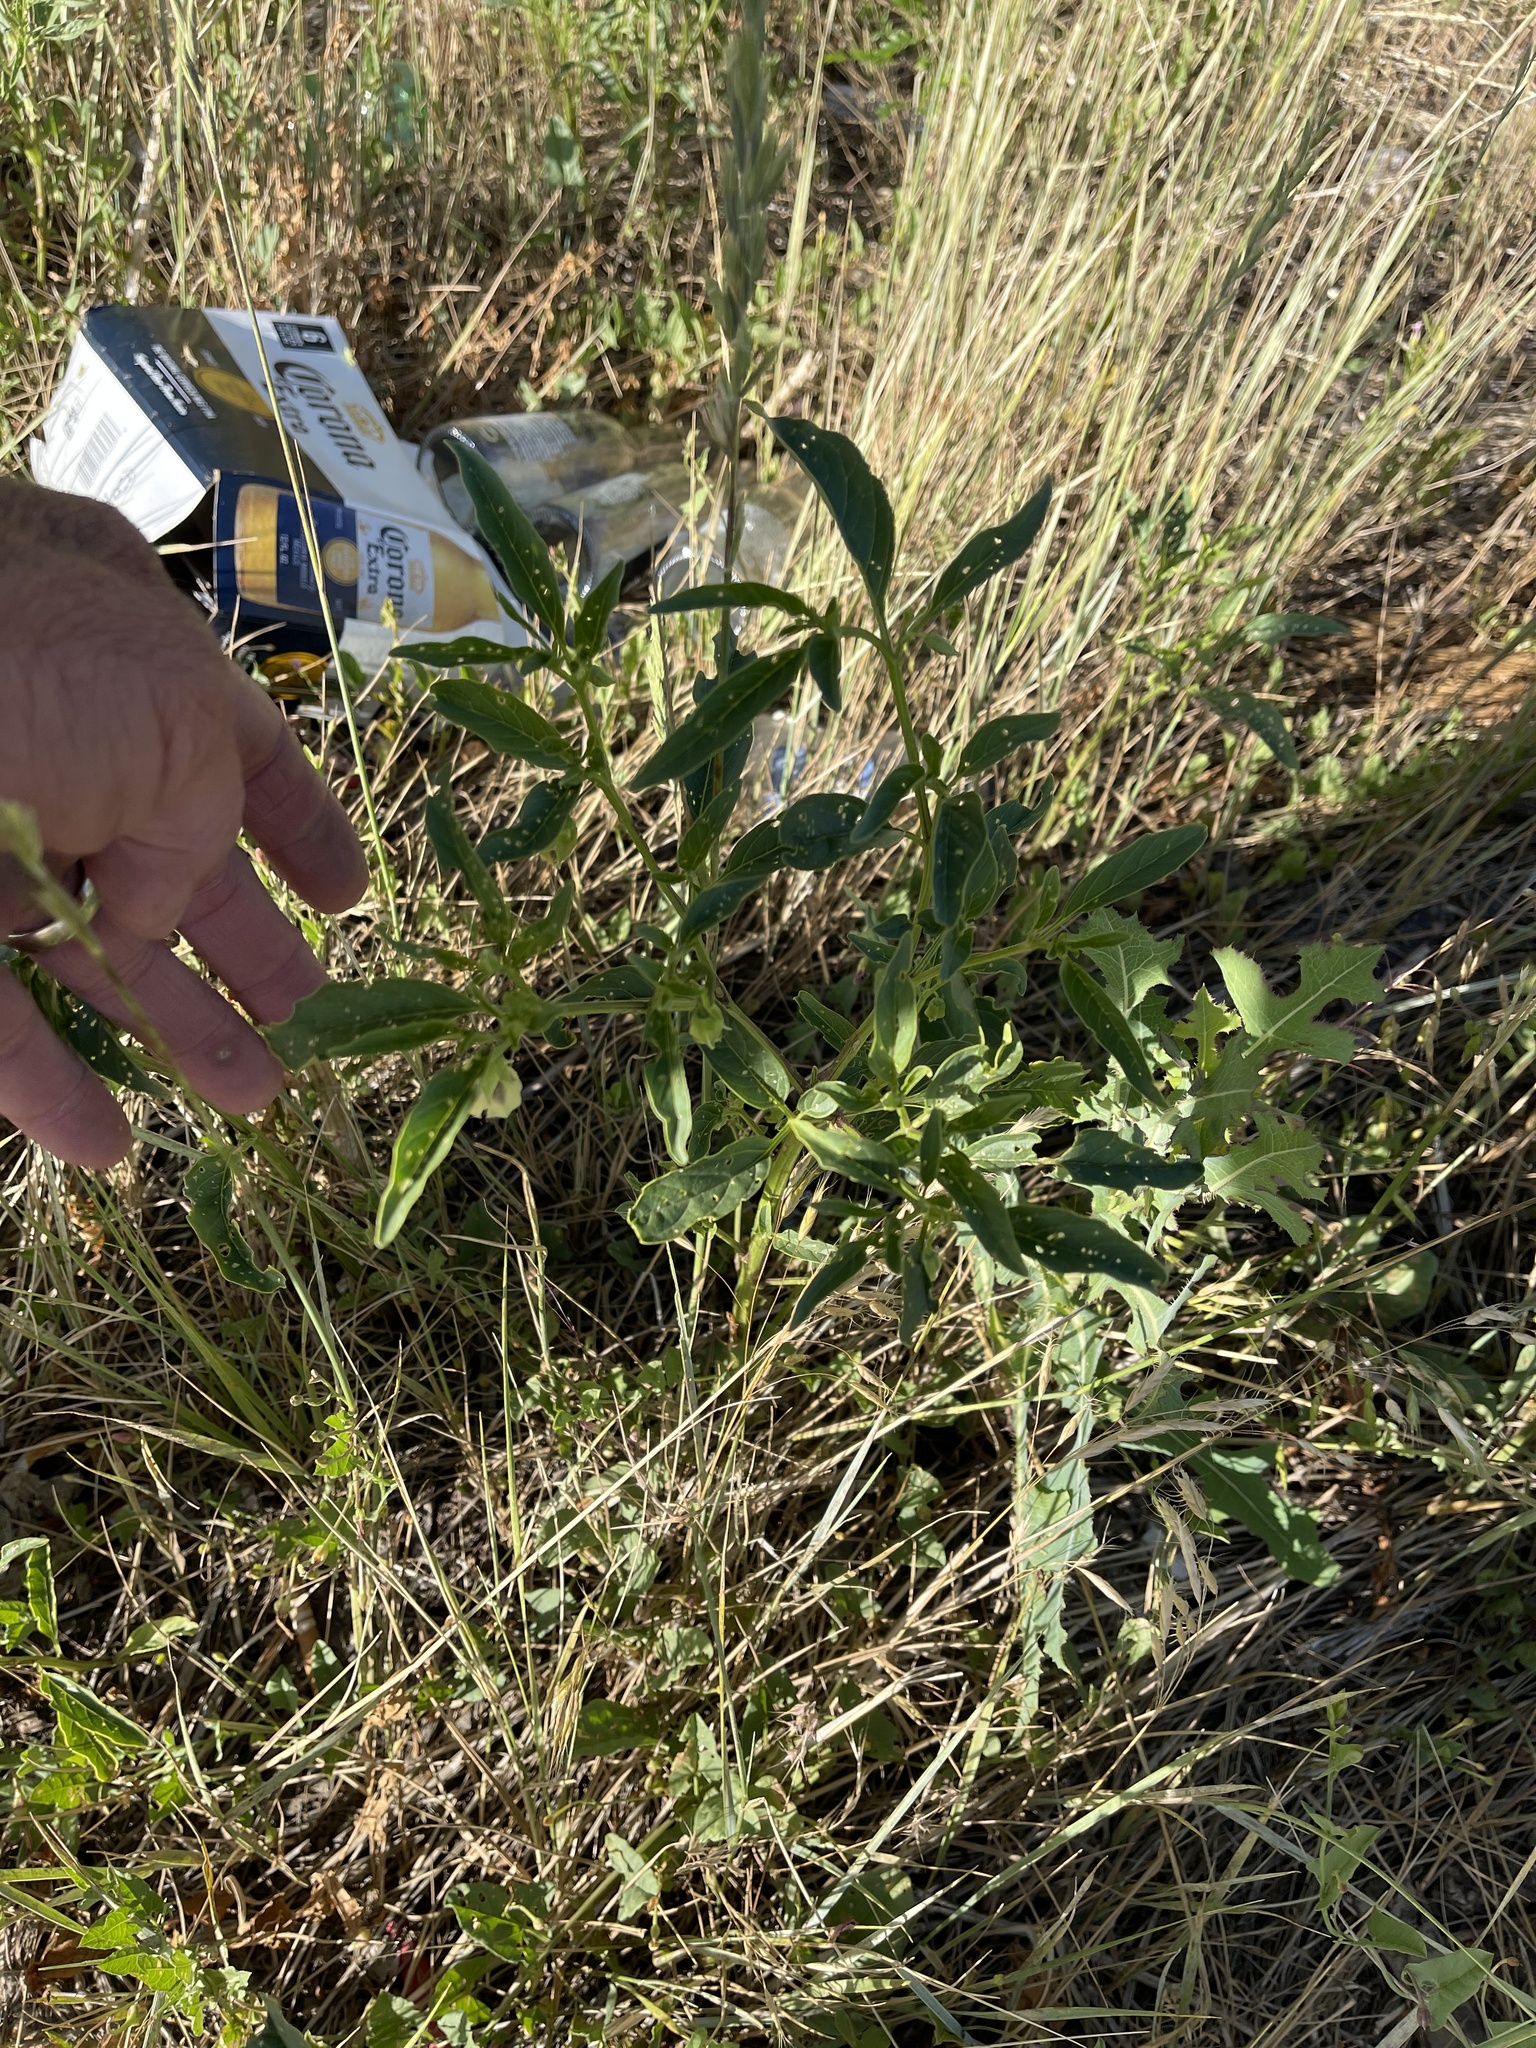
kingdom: Plantae
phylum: Tracheophyta
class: Magnoliopsida
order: Solanales
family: Solanaceae
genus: Physalis
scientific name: Physalis longifolia
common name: Common ground-cherry
